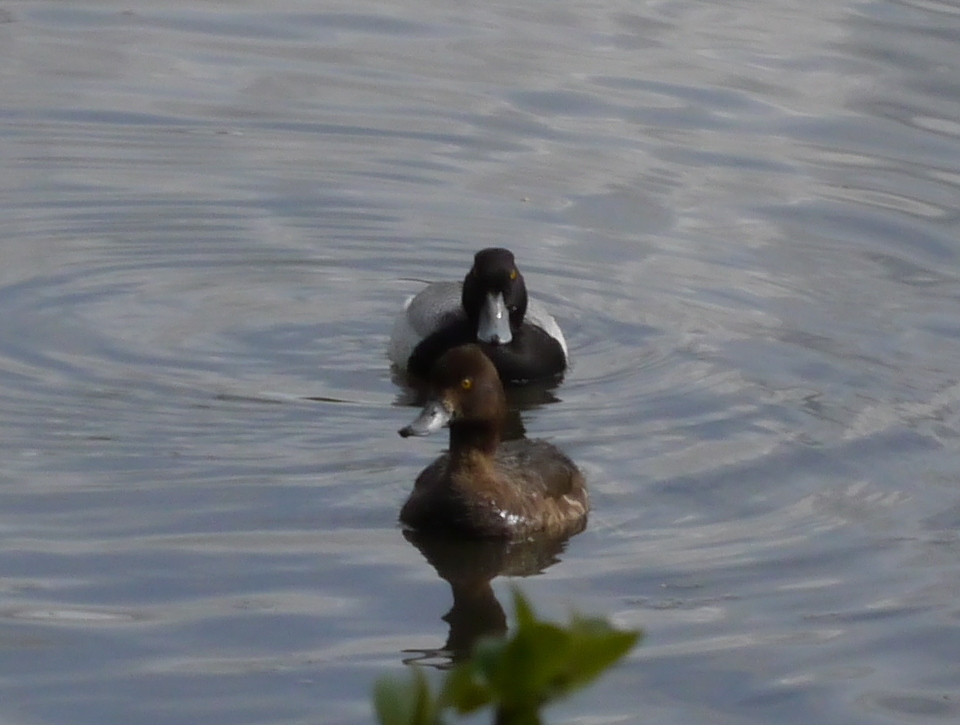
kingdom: Animalia
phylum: Chordata
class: Aves
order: Anseriformes
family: Anatidae
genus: Aythya
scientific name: Aythya marila
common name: Greater scaup
